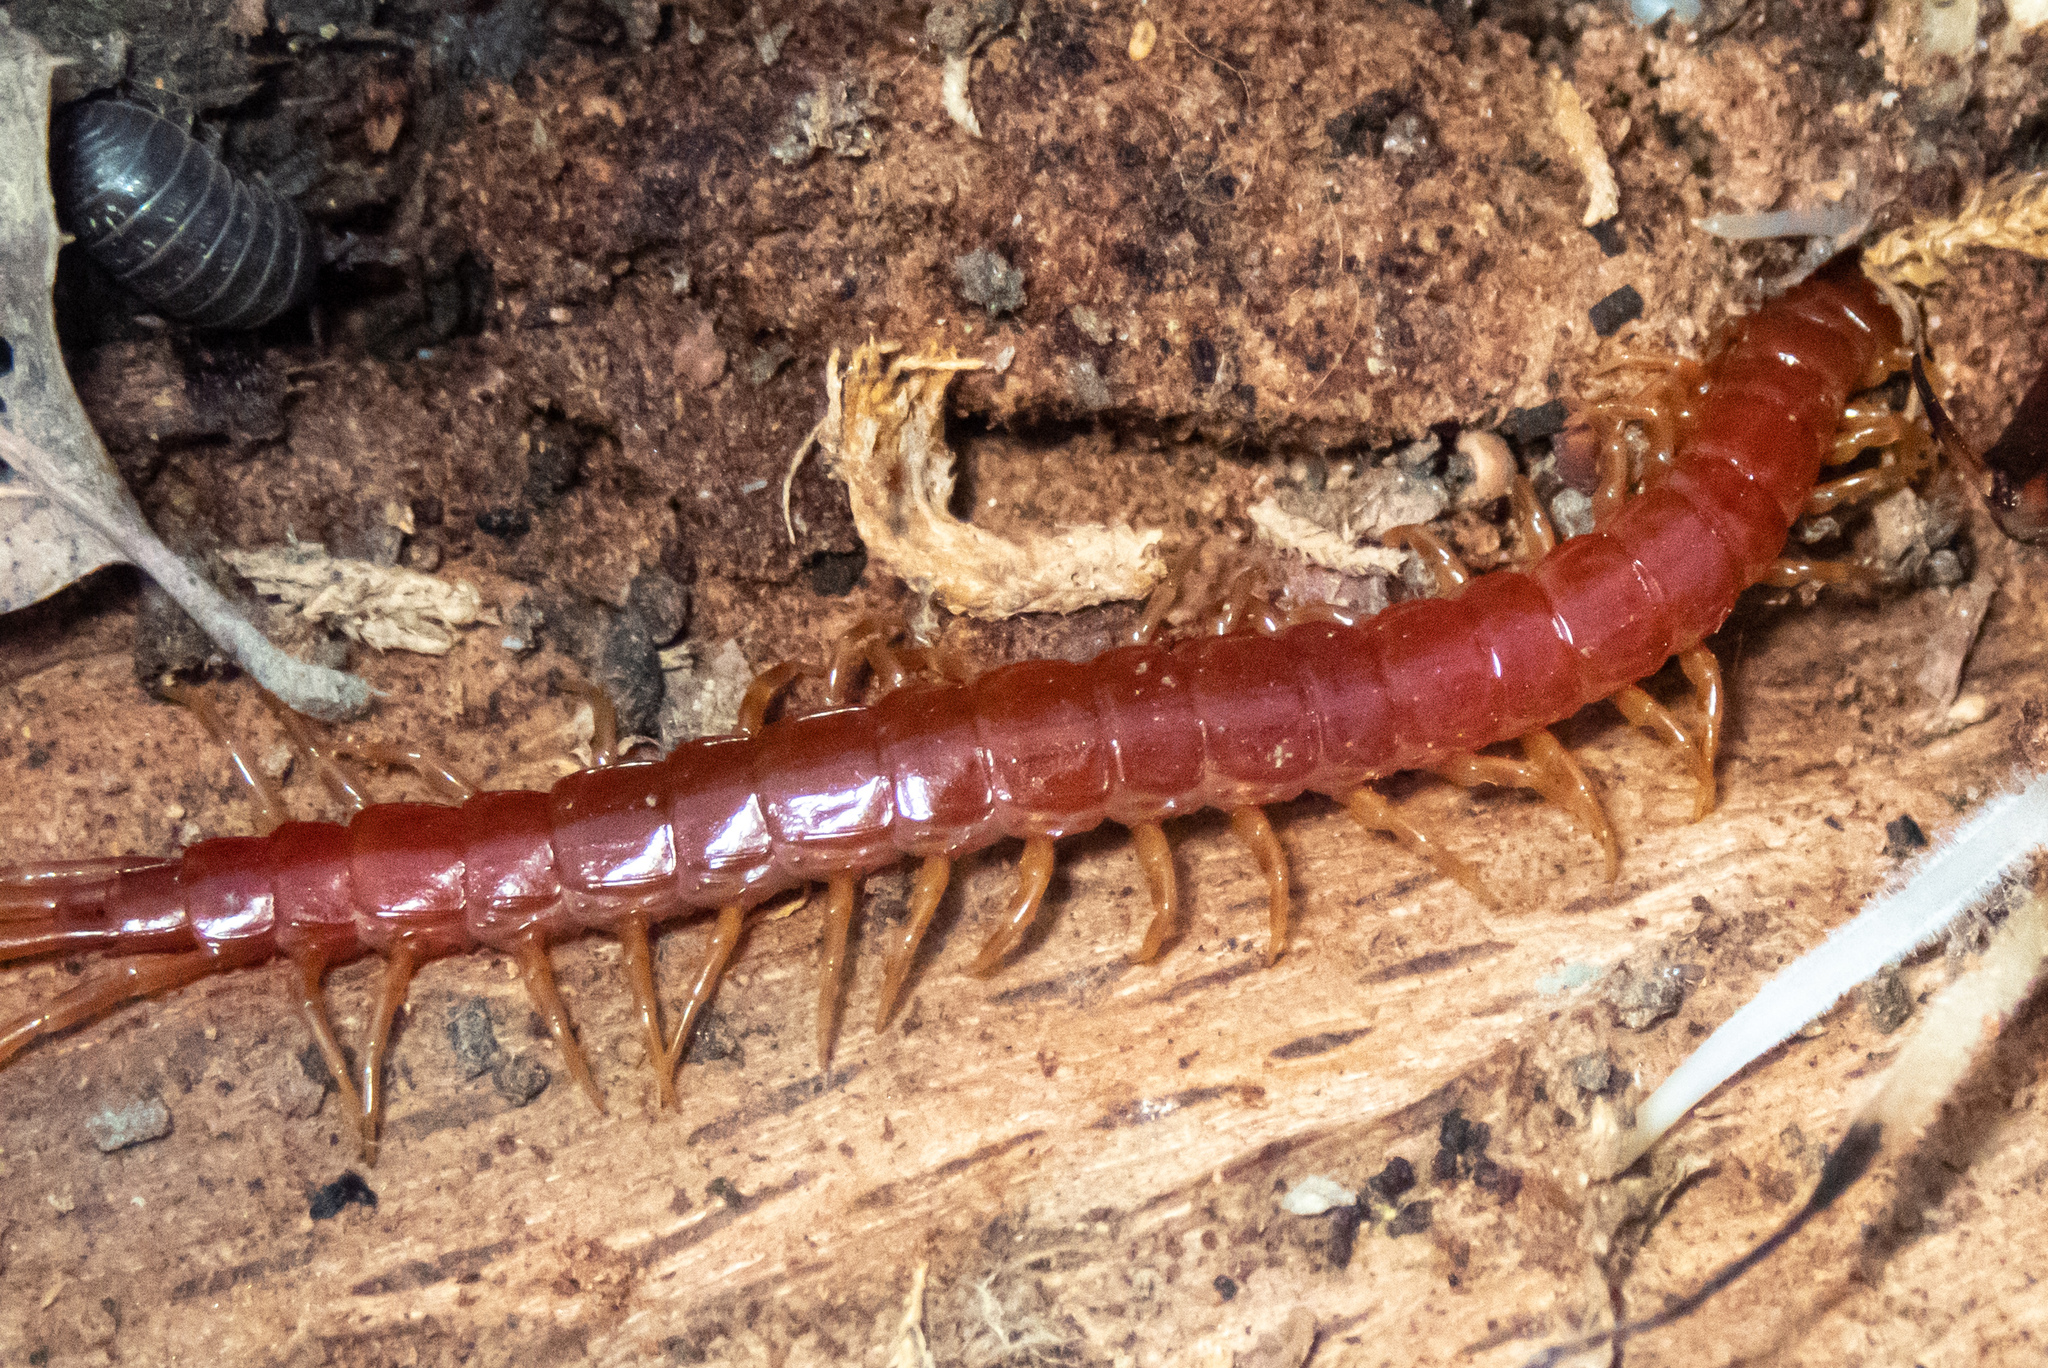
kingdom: Animalia
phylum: Arthropoda
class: Chilopoda
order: Scolopendromorpha
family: Scolopocryptopidae
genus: Scolopocryptops
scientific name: Scolopocryptops spinicaudus
